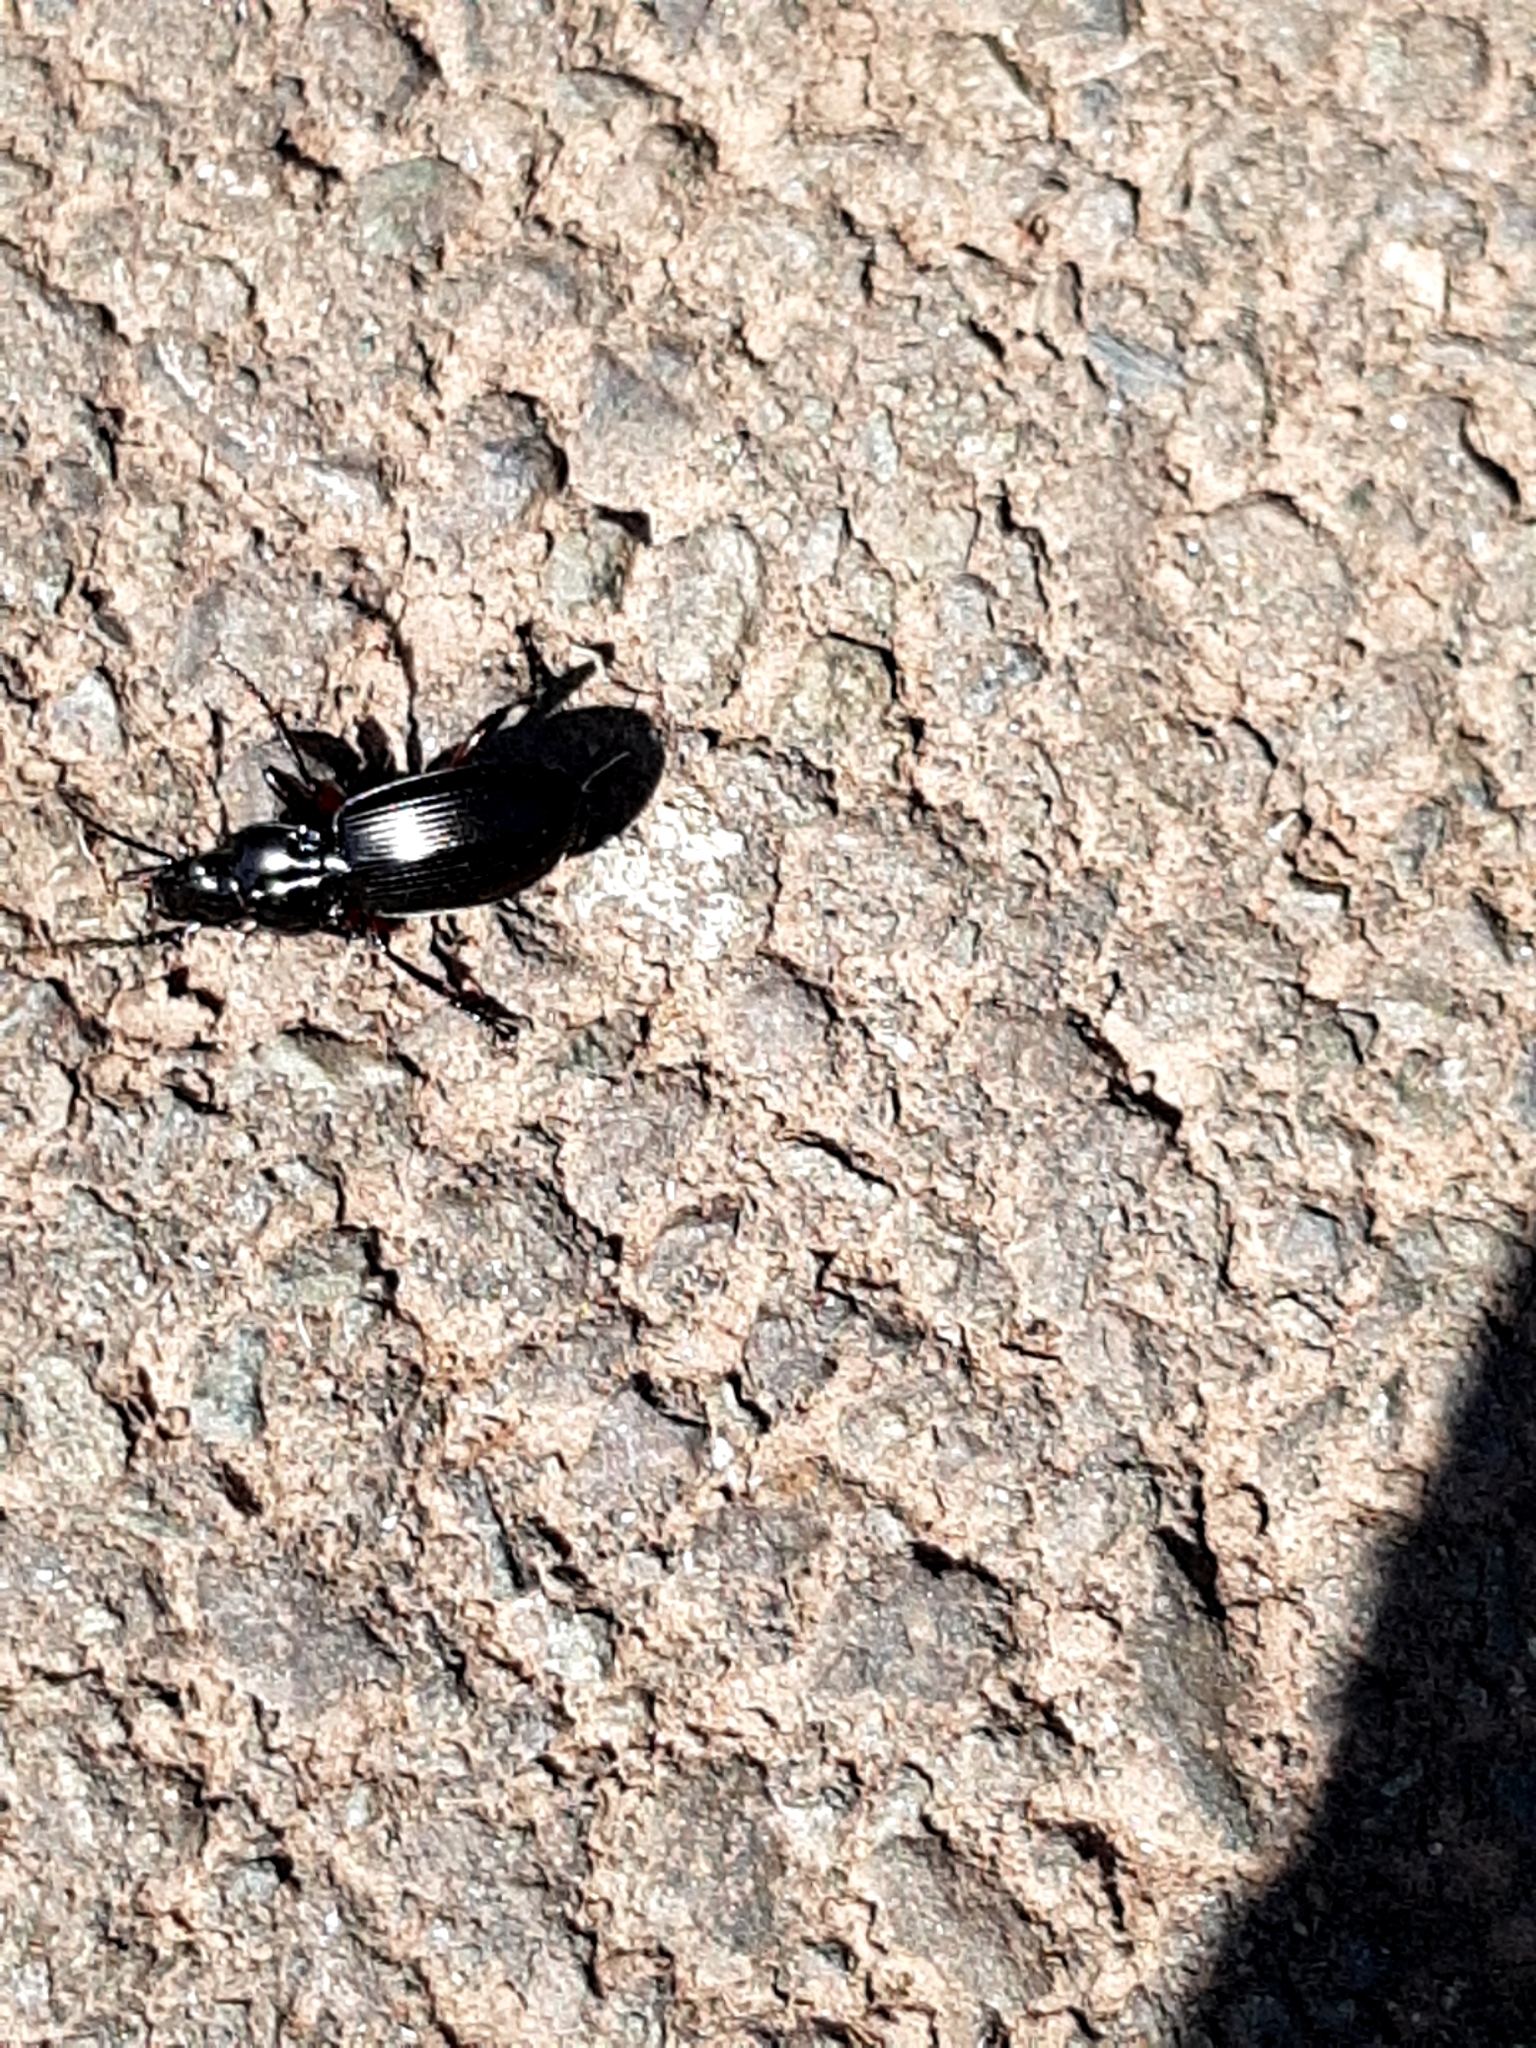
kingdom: Animalia
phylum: Arthropoda
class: Insecta
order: Coleoptera
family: Carabidae
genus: Pterostichus
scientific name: Pterostichus madidus
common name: Black clock
